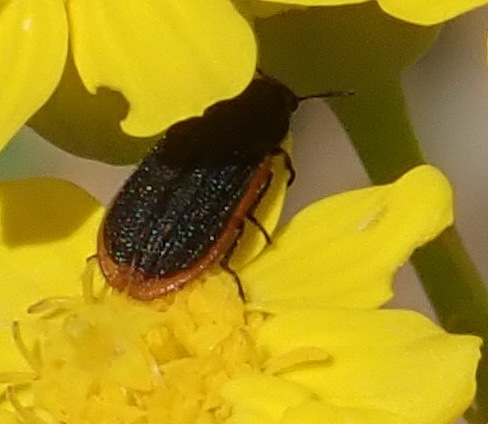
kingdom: Animalia
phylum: Arthropoda
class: Insecta
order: Coleoptera
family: Melyridae
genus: Melyris
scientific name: Melyris
